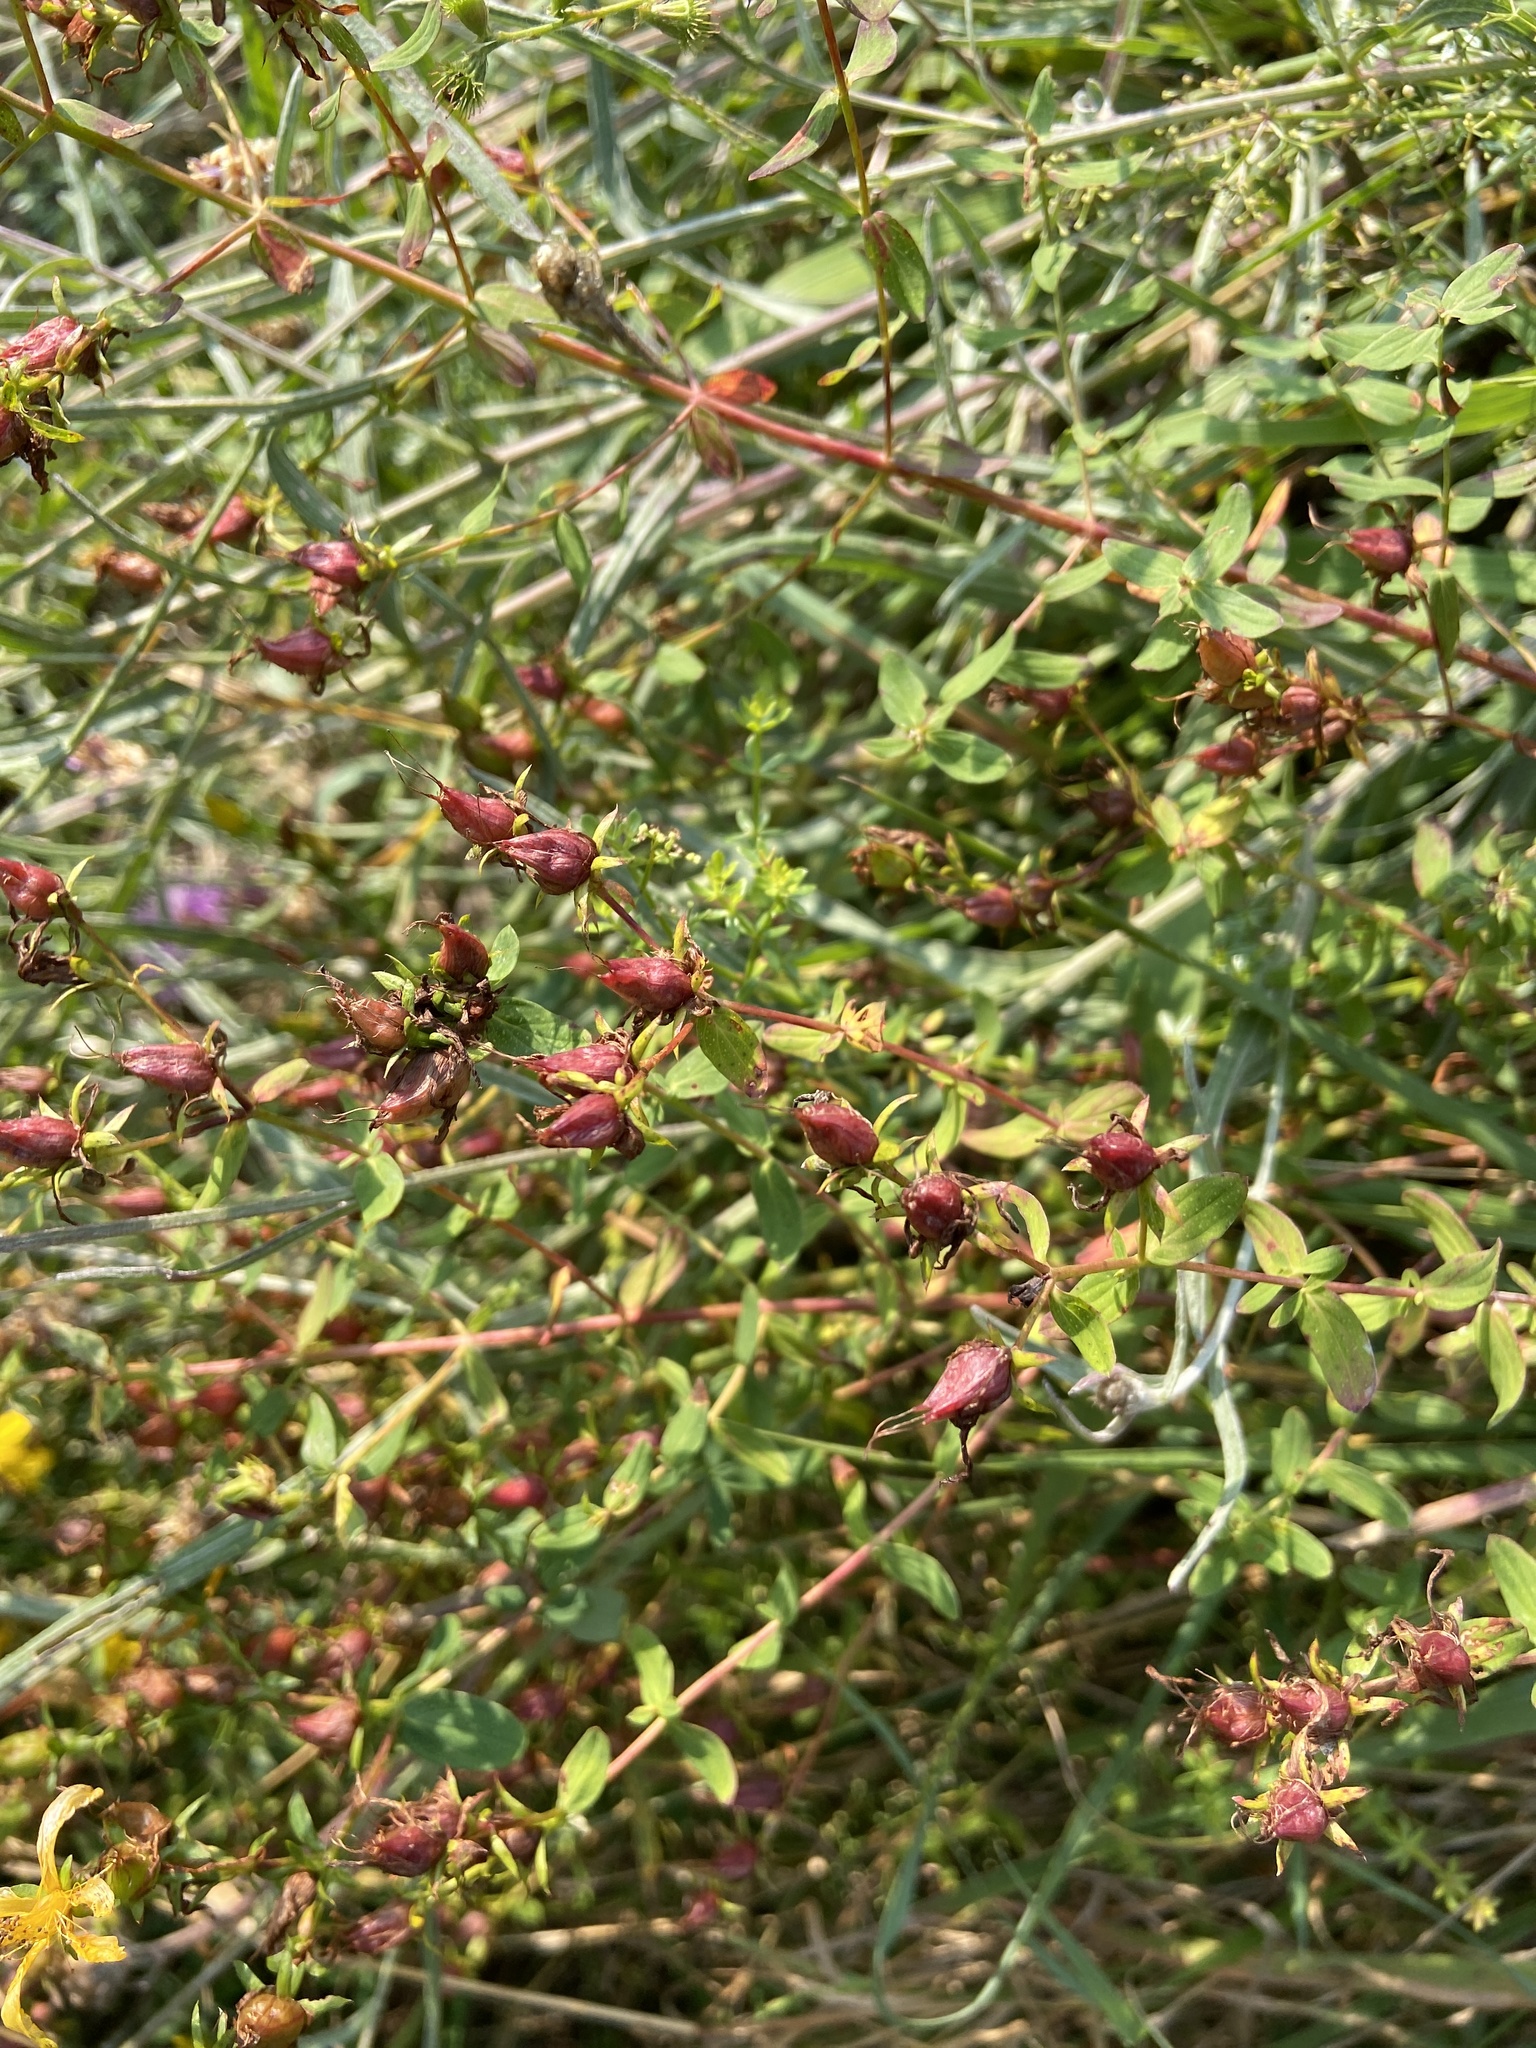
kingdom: Plantae
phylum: Tracheophyta
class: Magnoliopsida
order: Malpighiales
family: Hypericaceae
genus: Hypericum
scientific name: Hypericum perforatum
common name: Common st. johnswort
